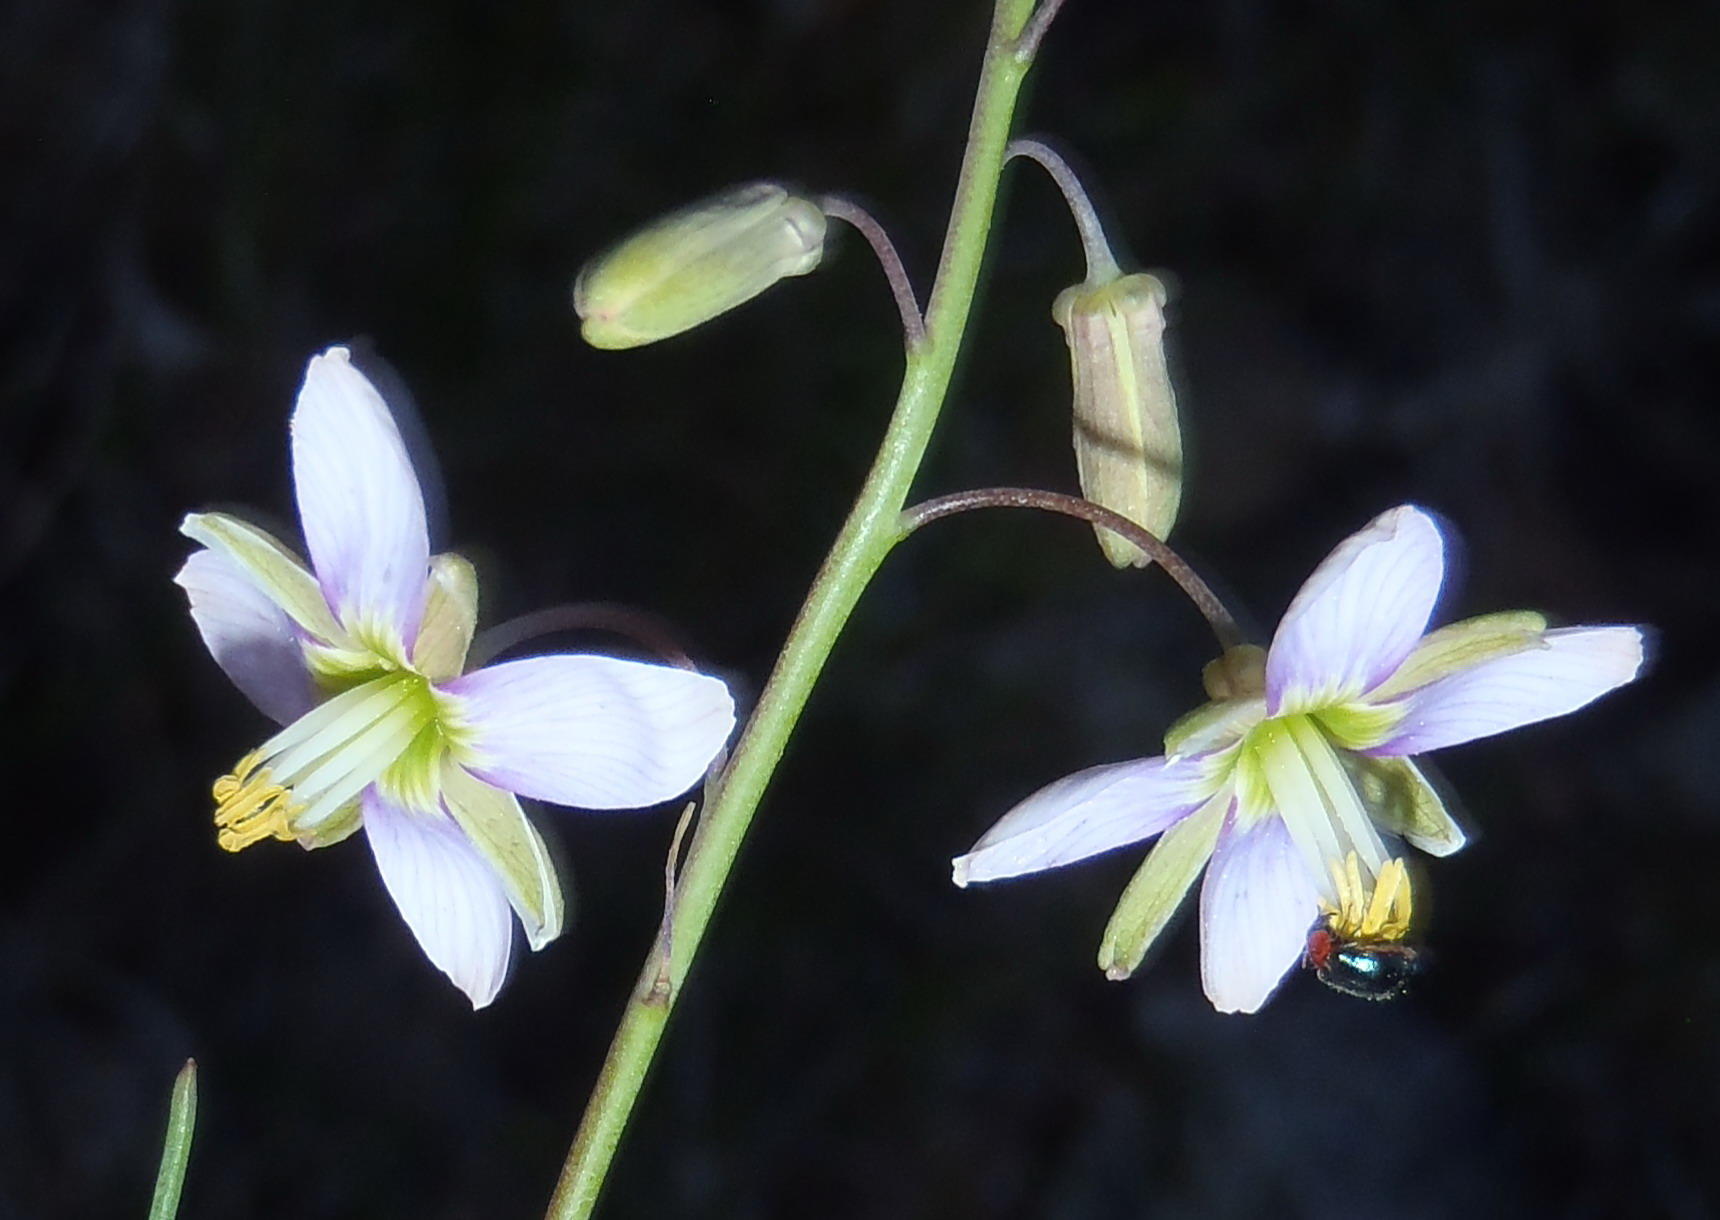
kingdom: Plantae
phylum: Tracheophyta
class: Magnoliopsida
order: Brassicales
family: Brassicaceae
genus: Heliophila
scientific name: Heliophila cornuta
